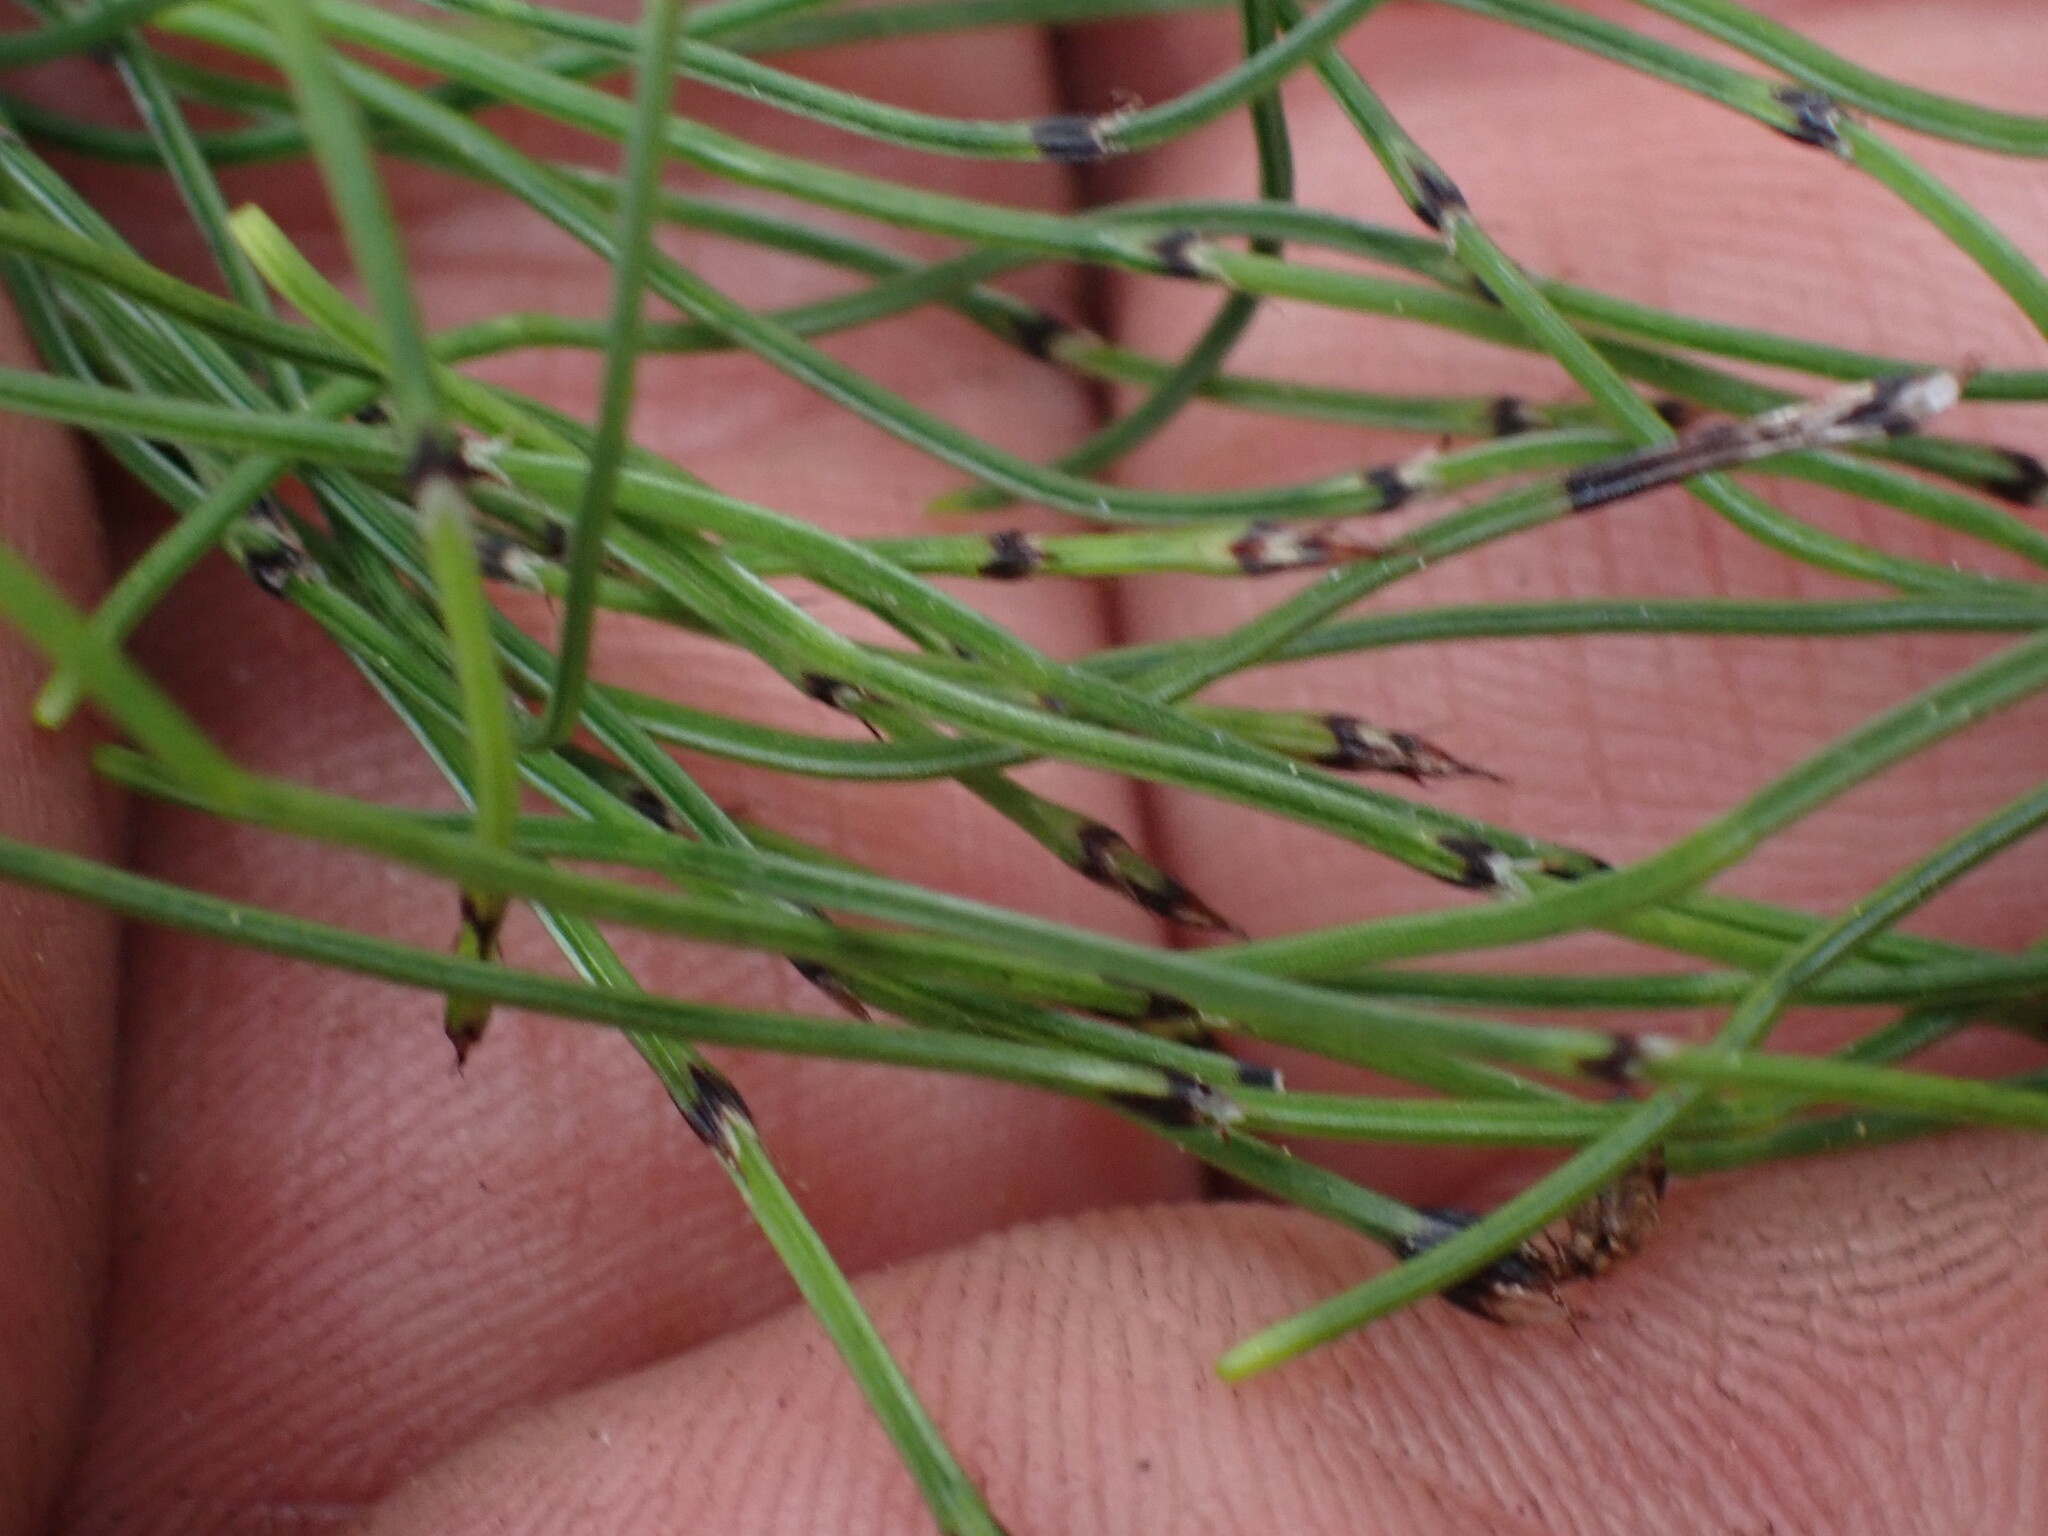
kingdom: Plantae
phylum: Tracheophyta
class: Polypodiopsida
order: Equisetales
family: Equisetaceae
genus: Equisetum
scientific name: Equisetum scirpoides
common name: Delicate horsetail
